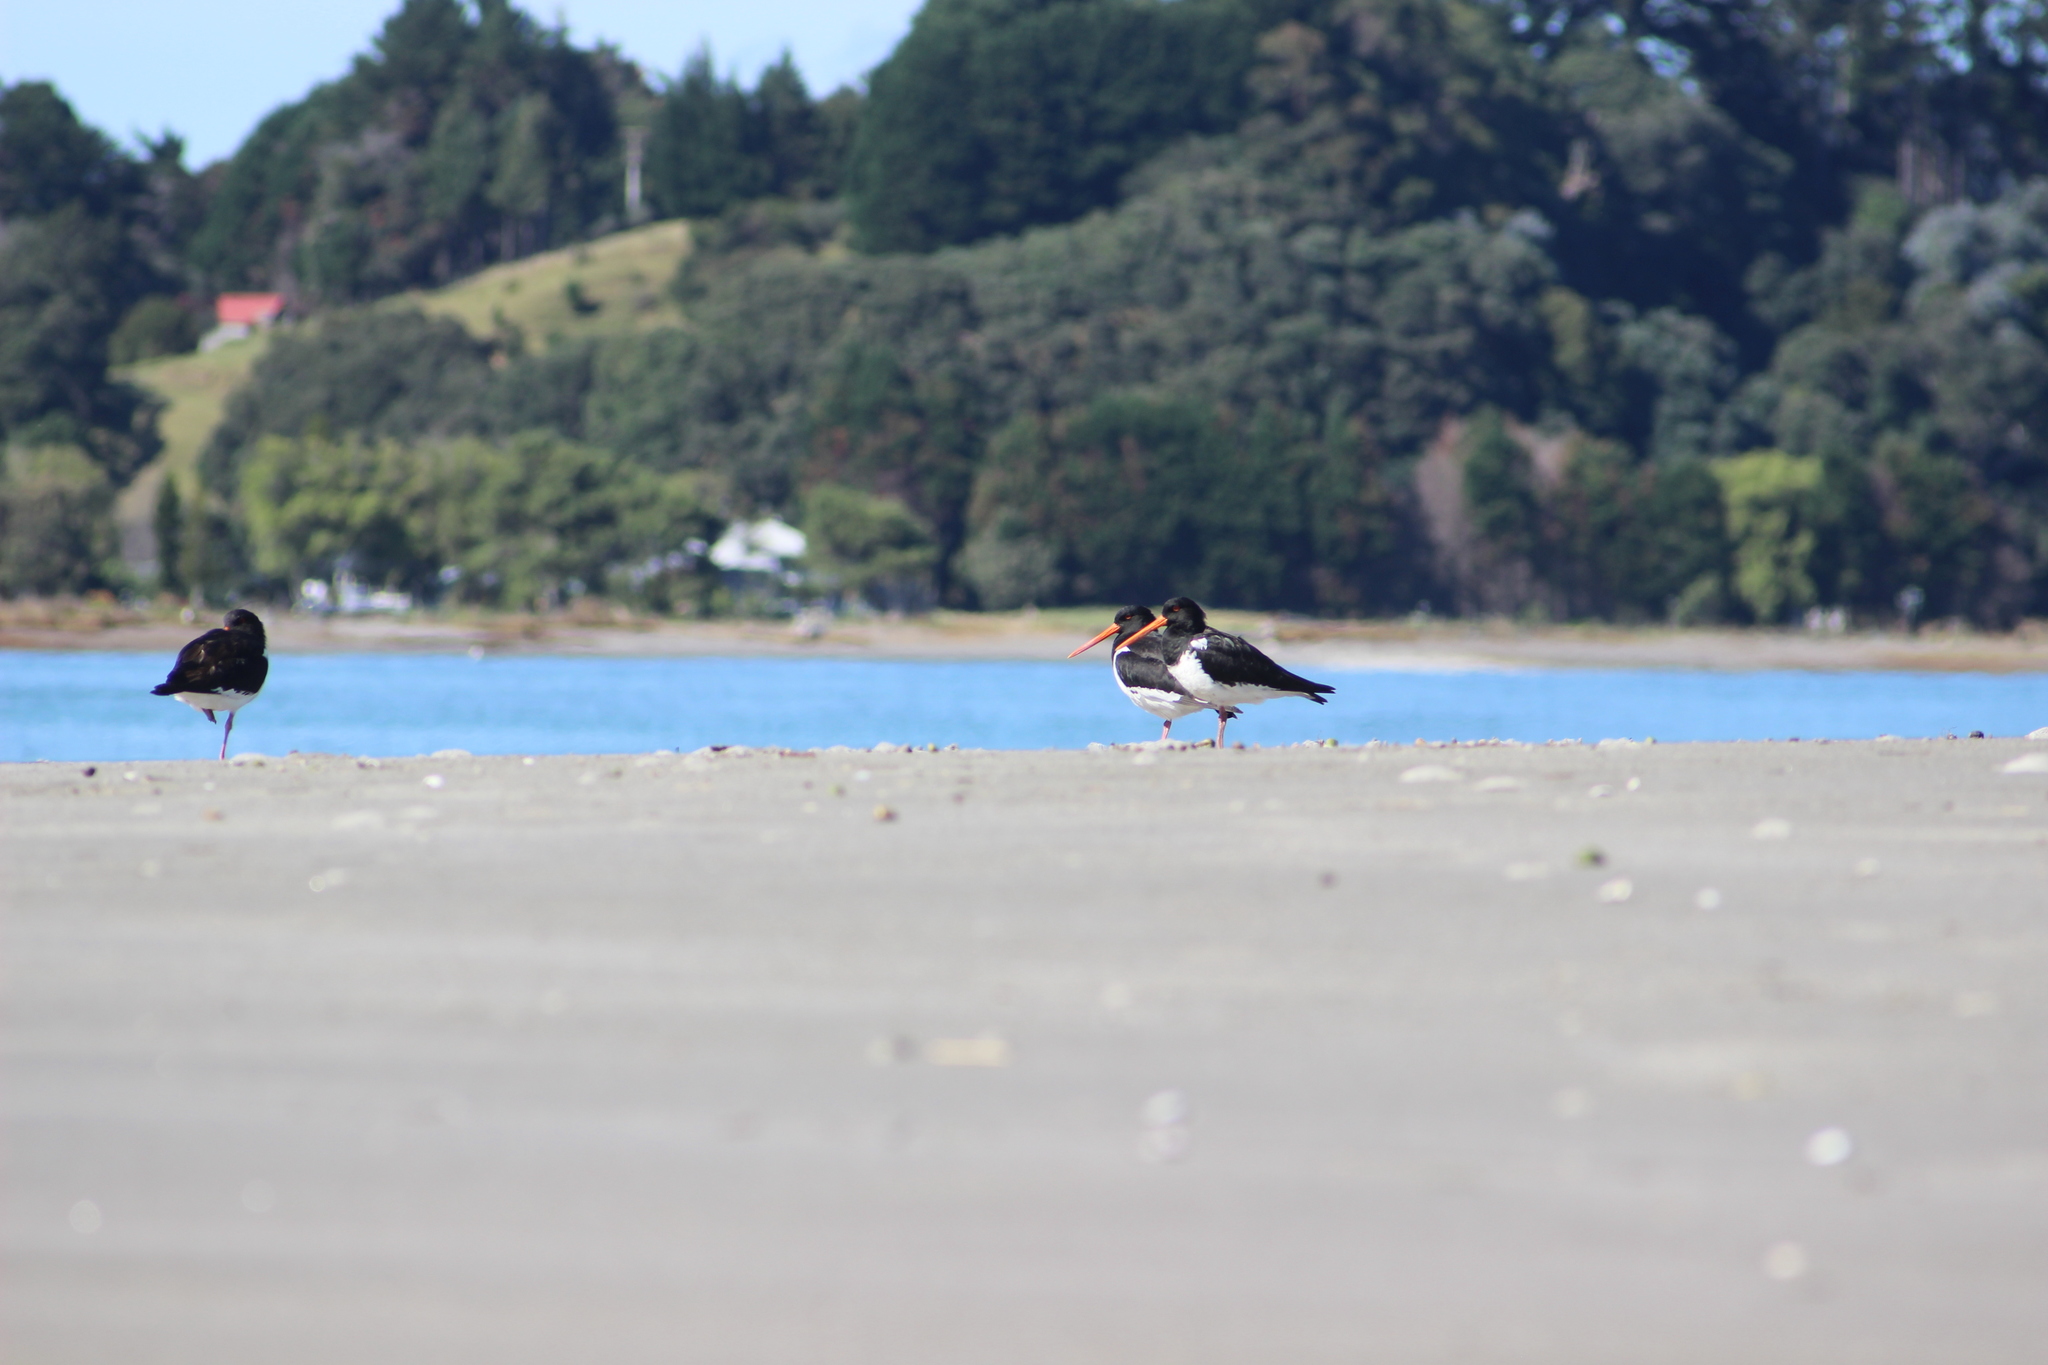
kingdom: Animalia
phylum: Chordata
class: Aves
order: Charadriiformes
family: Haematopodidae
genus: Haematopus
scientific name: Haematopus finschi
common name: South island oystercatcher
